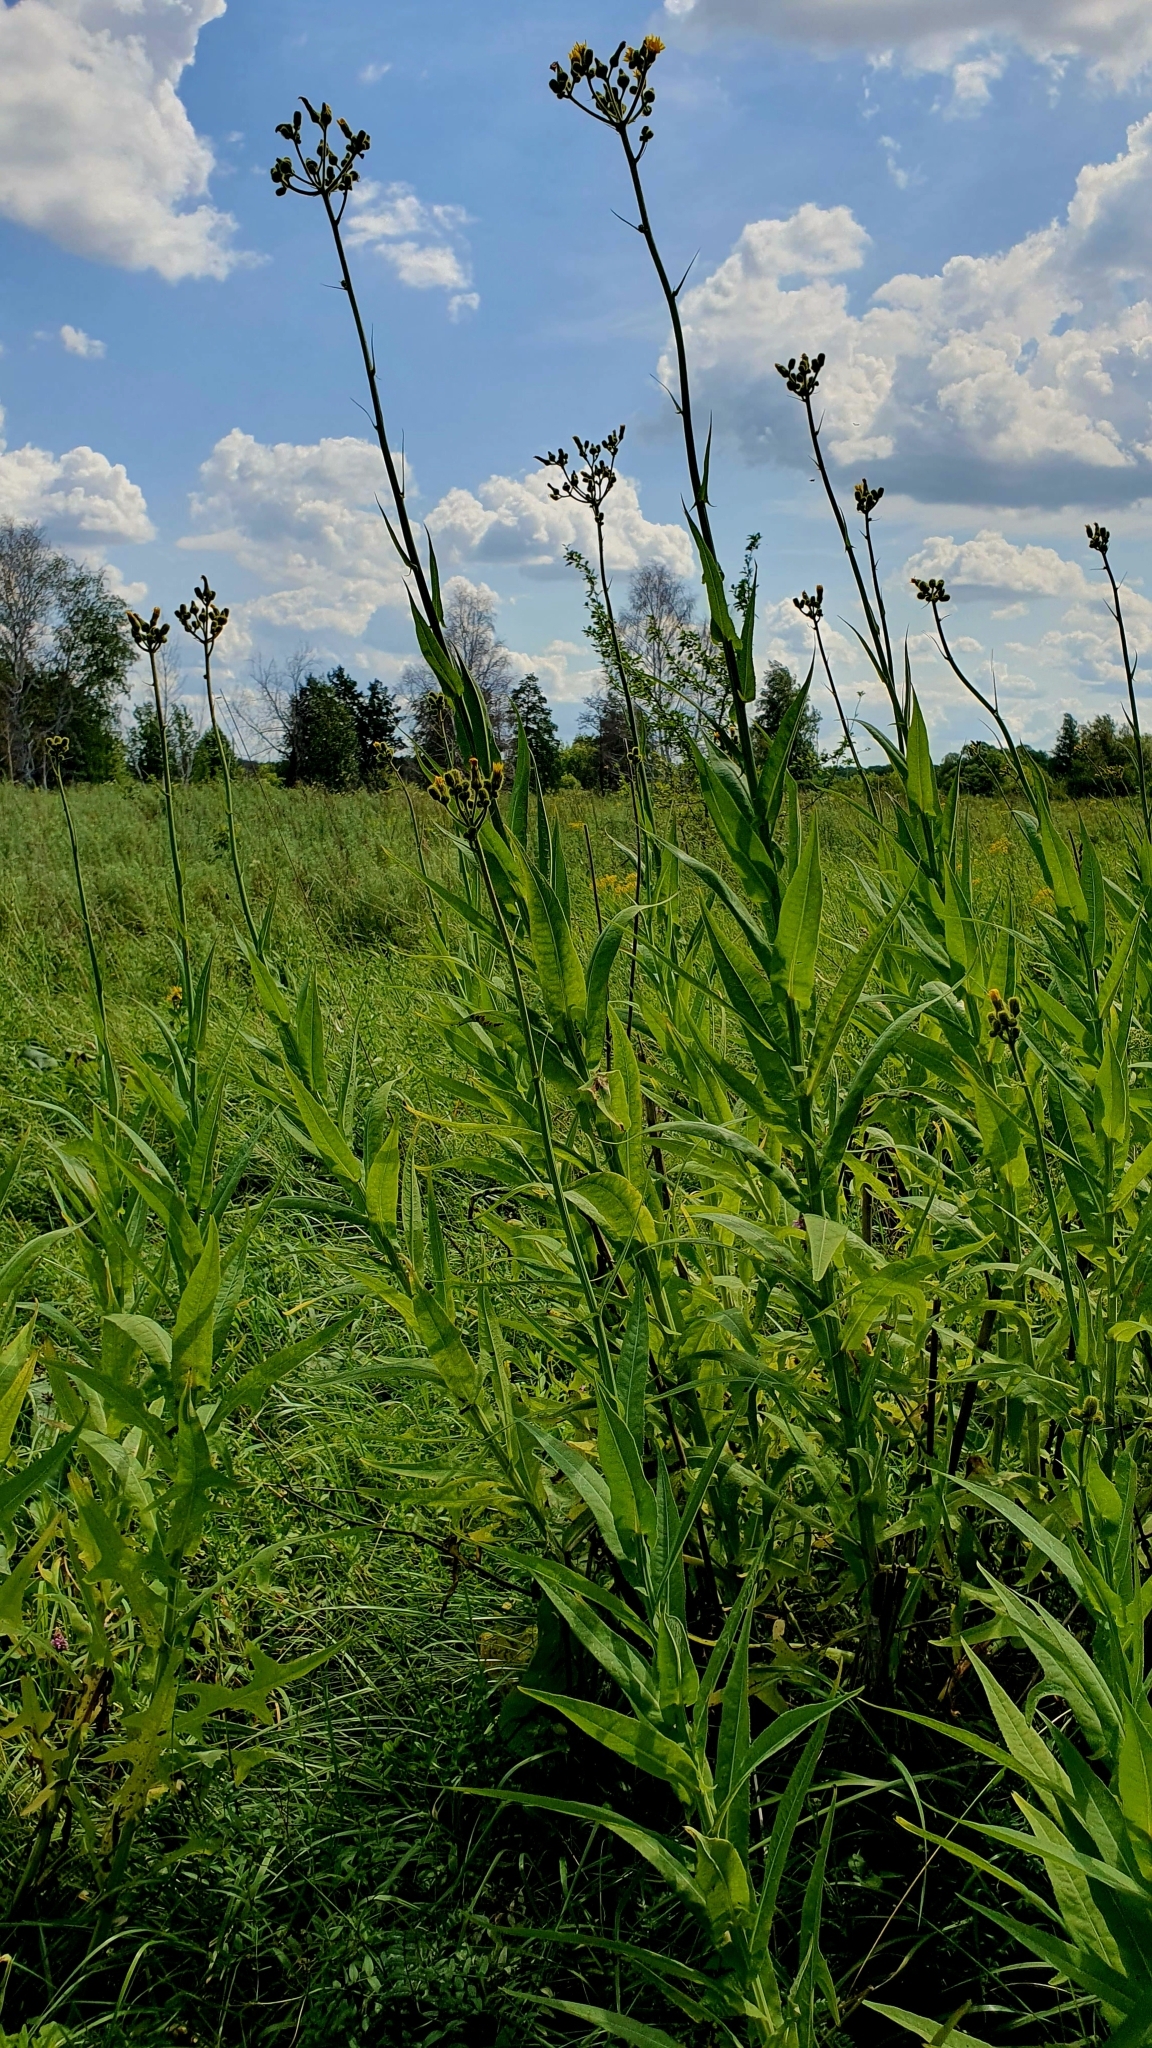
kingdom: Plantae
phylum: Tracheophyta
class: Magnoliopsida
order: Asterales
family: Asteraceae
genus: Sonchus
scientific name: Sonchus palustris
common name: Marsh sow-thistle
